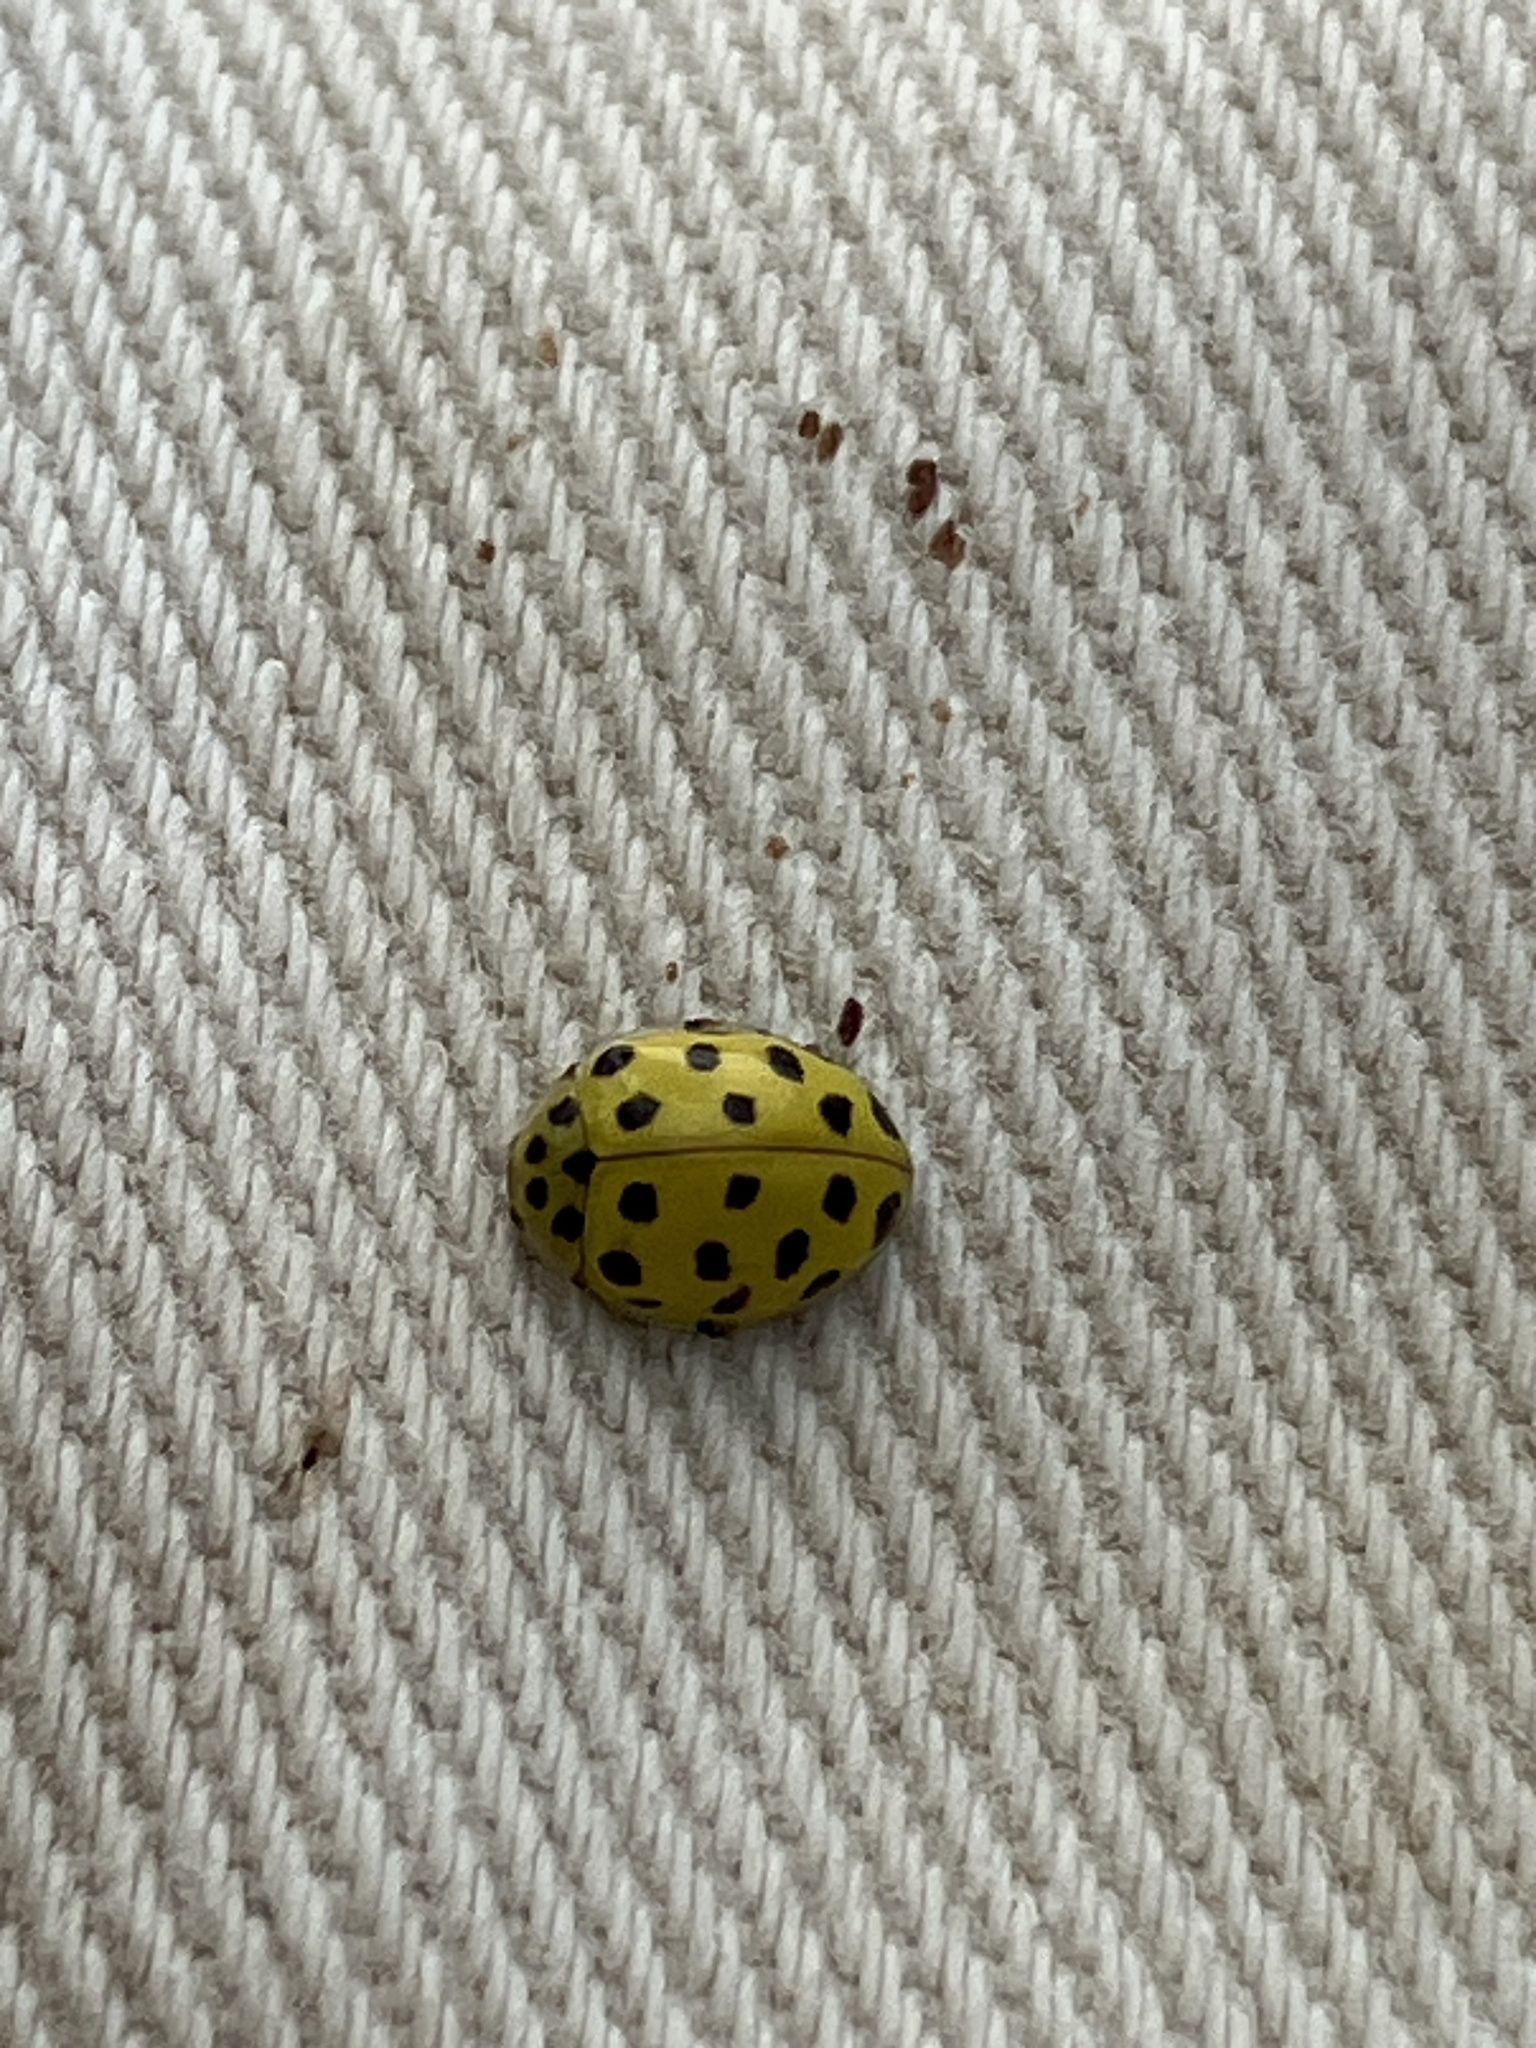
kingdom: Animalia
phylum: Arthropoda
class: Insecta
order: Coleoptera
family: Coccinellidae
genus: Psyllobora
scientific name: Psyllobora vigintiduopunctata
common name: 22-spot ladybird
